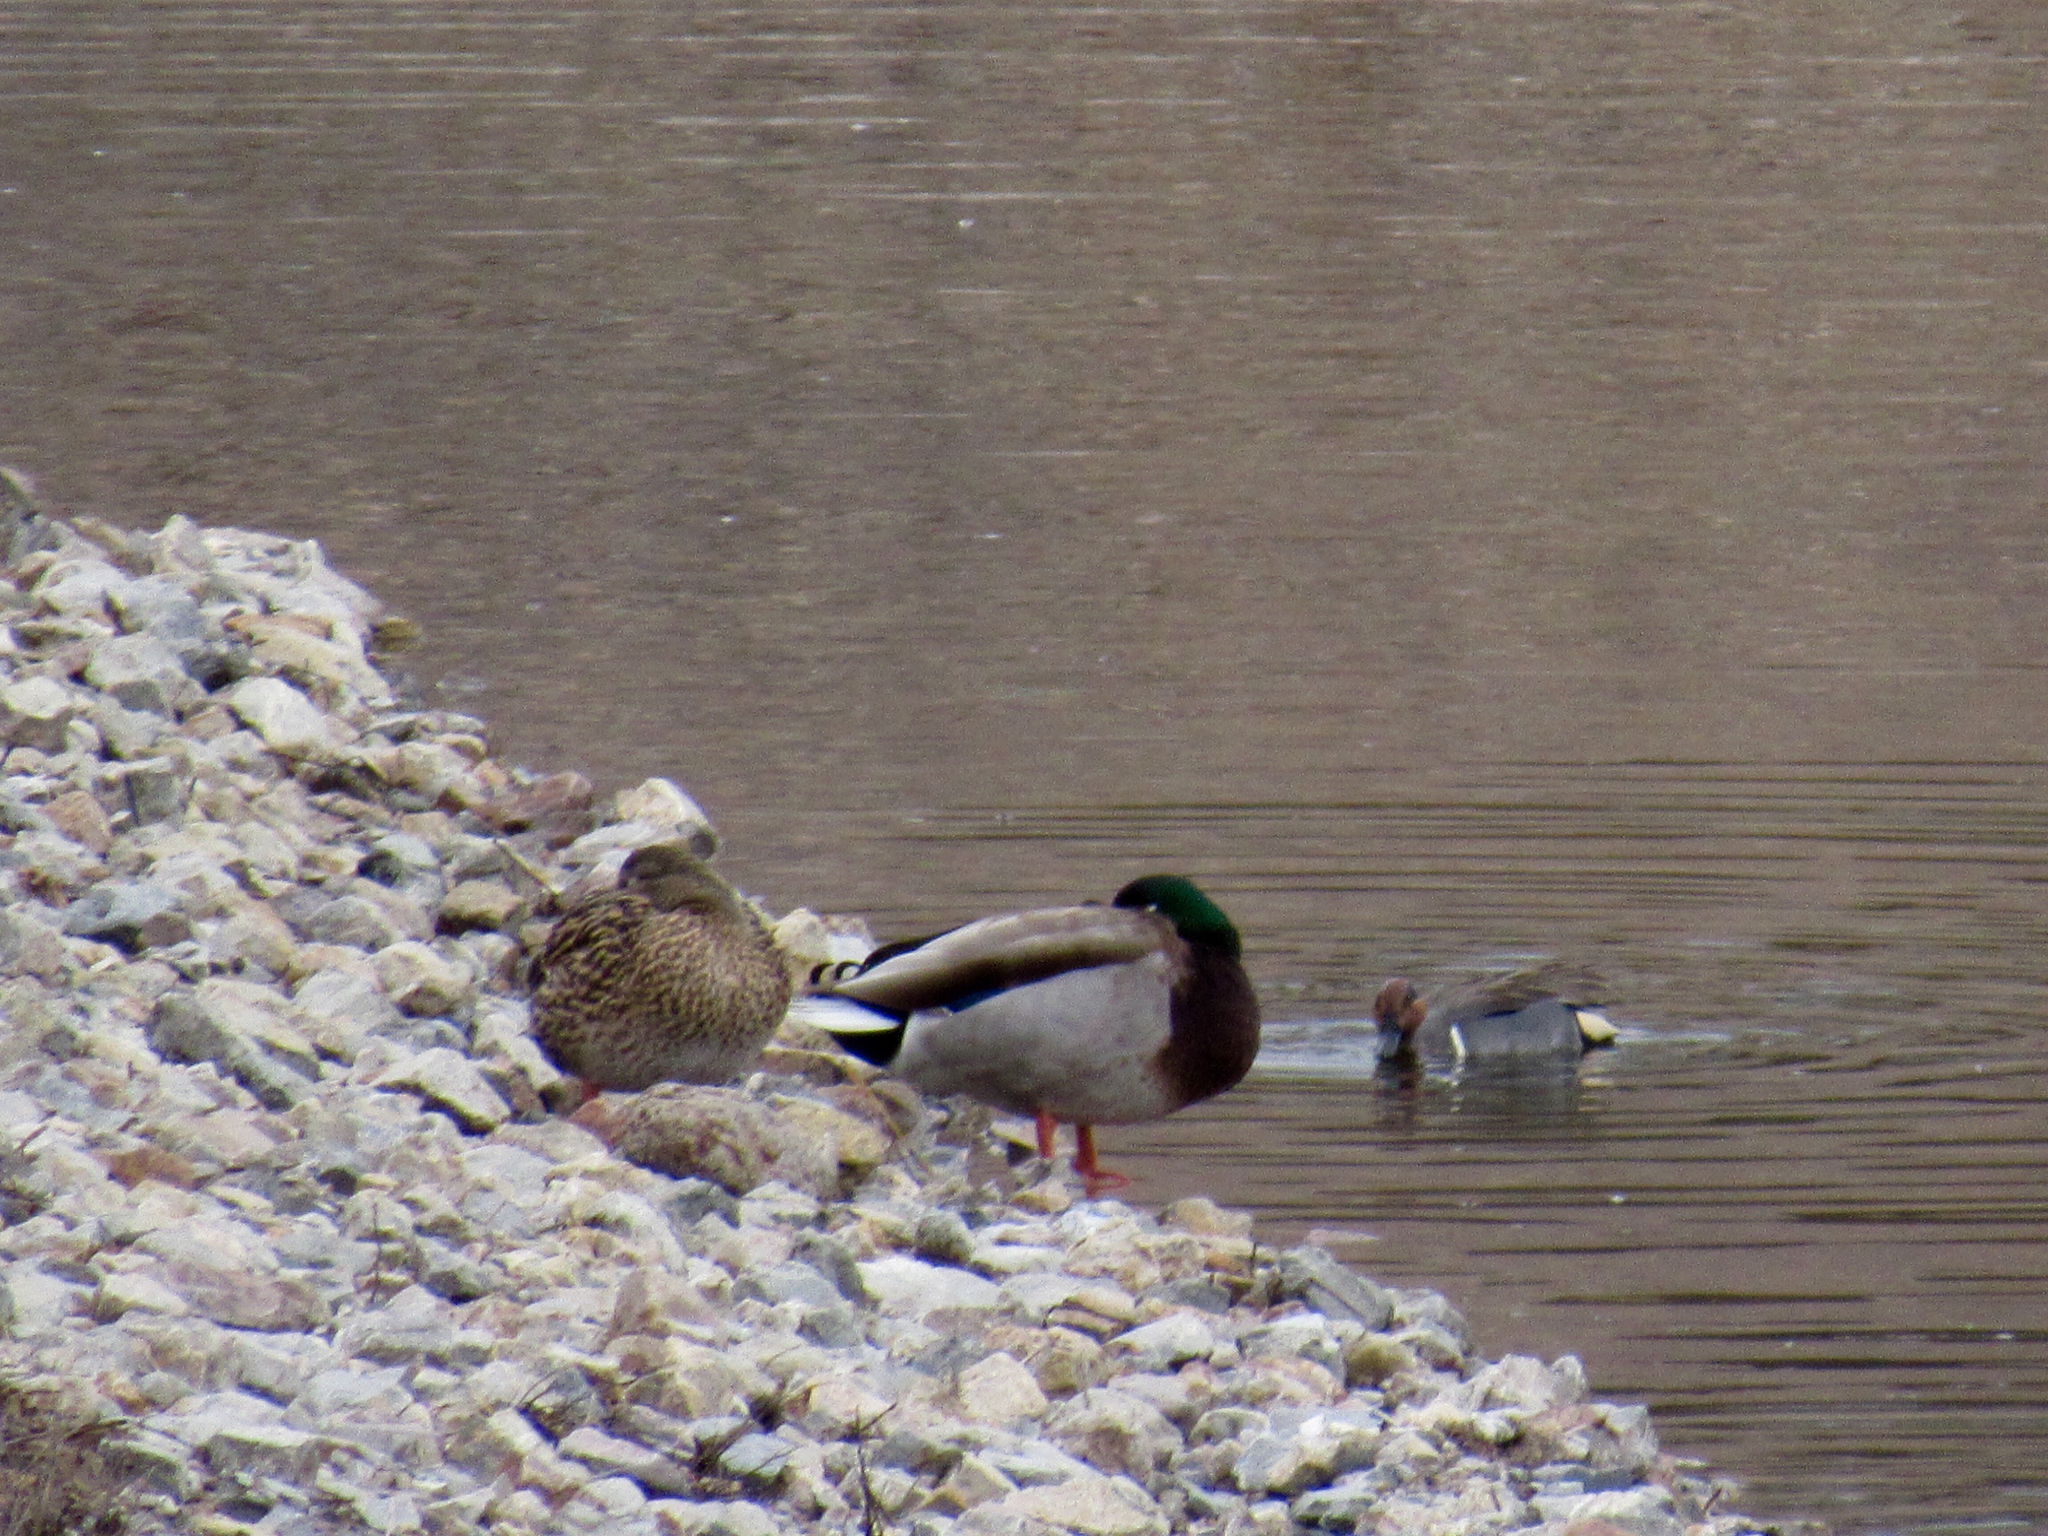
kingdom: Animalia
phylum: Chordata
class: Aves
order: Anseriformes
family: Anatidae
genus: Anas
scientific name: Anas platyrhynchos
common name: Mallard
